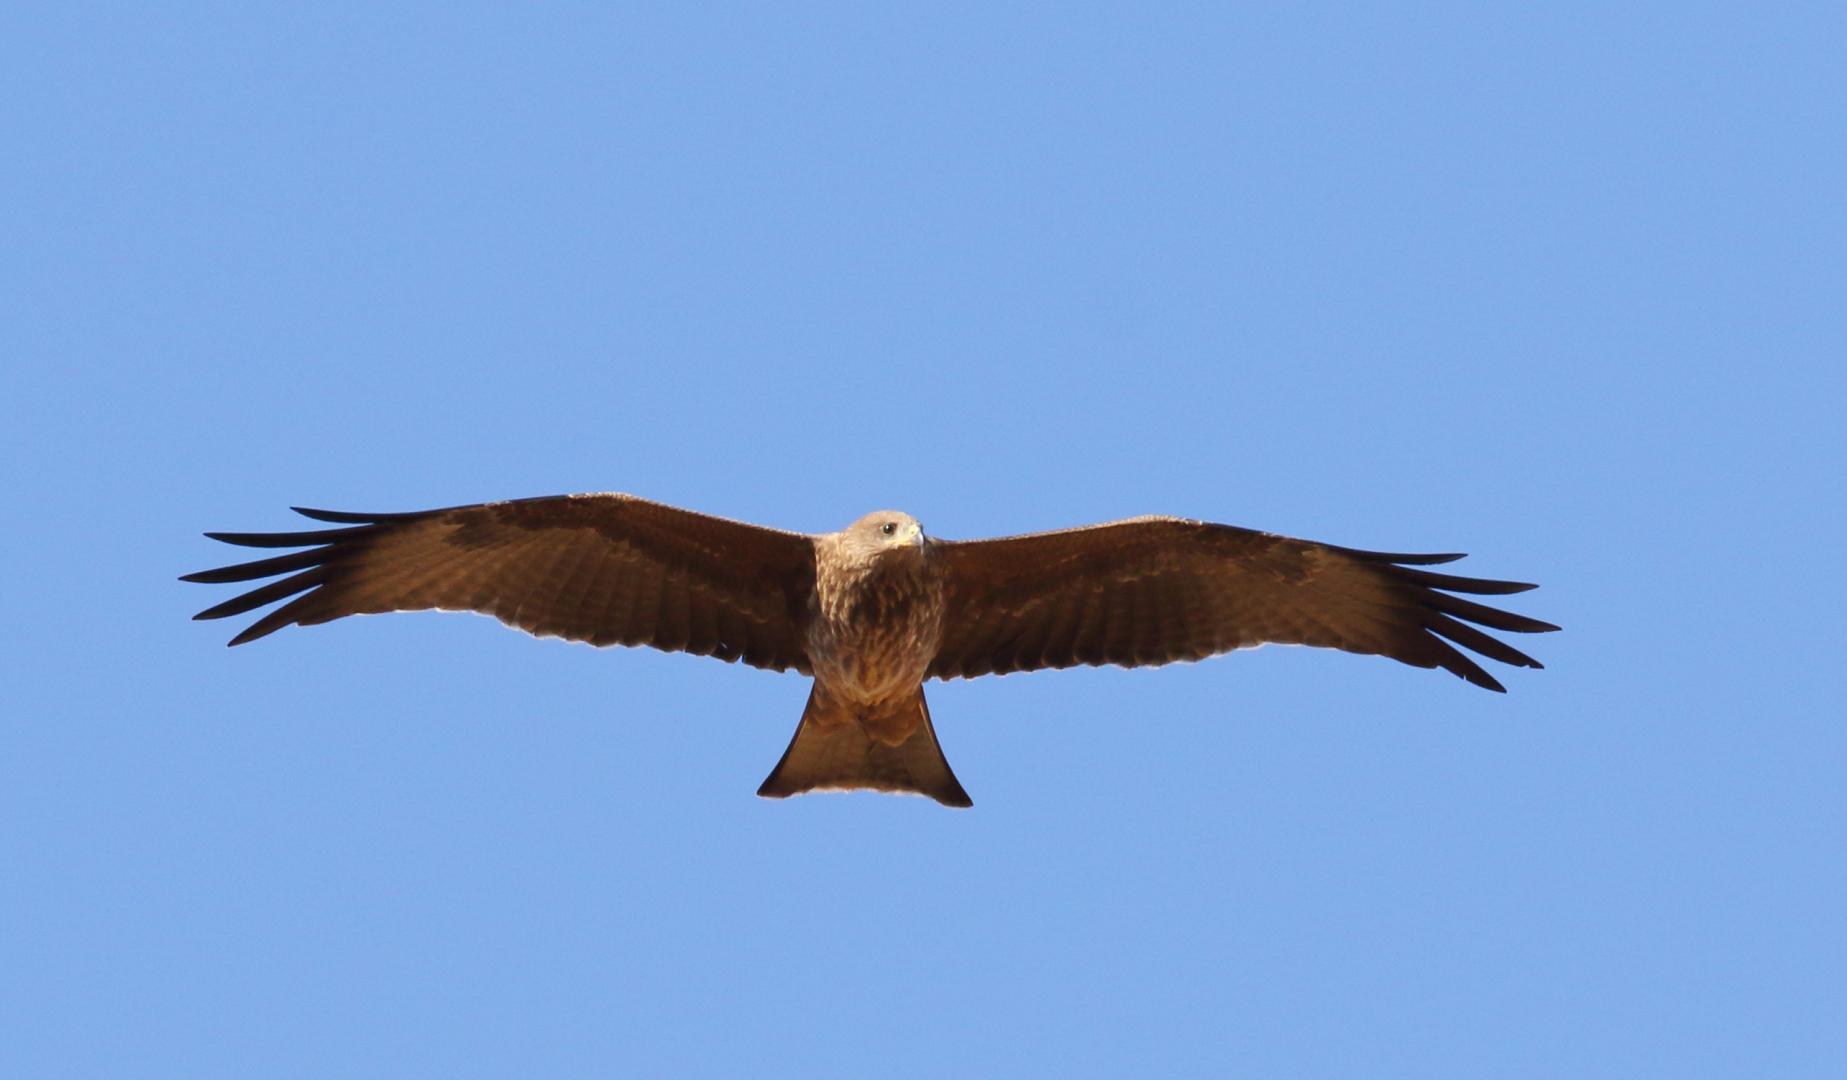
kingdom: Animalia
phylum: Chordata
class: Aves
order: Accipitriformes
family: Accipitridae
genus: Milvus
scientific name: Milvus migrans
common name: Black kite
